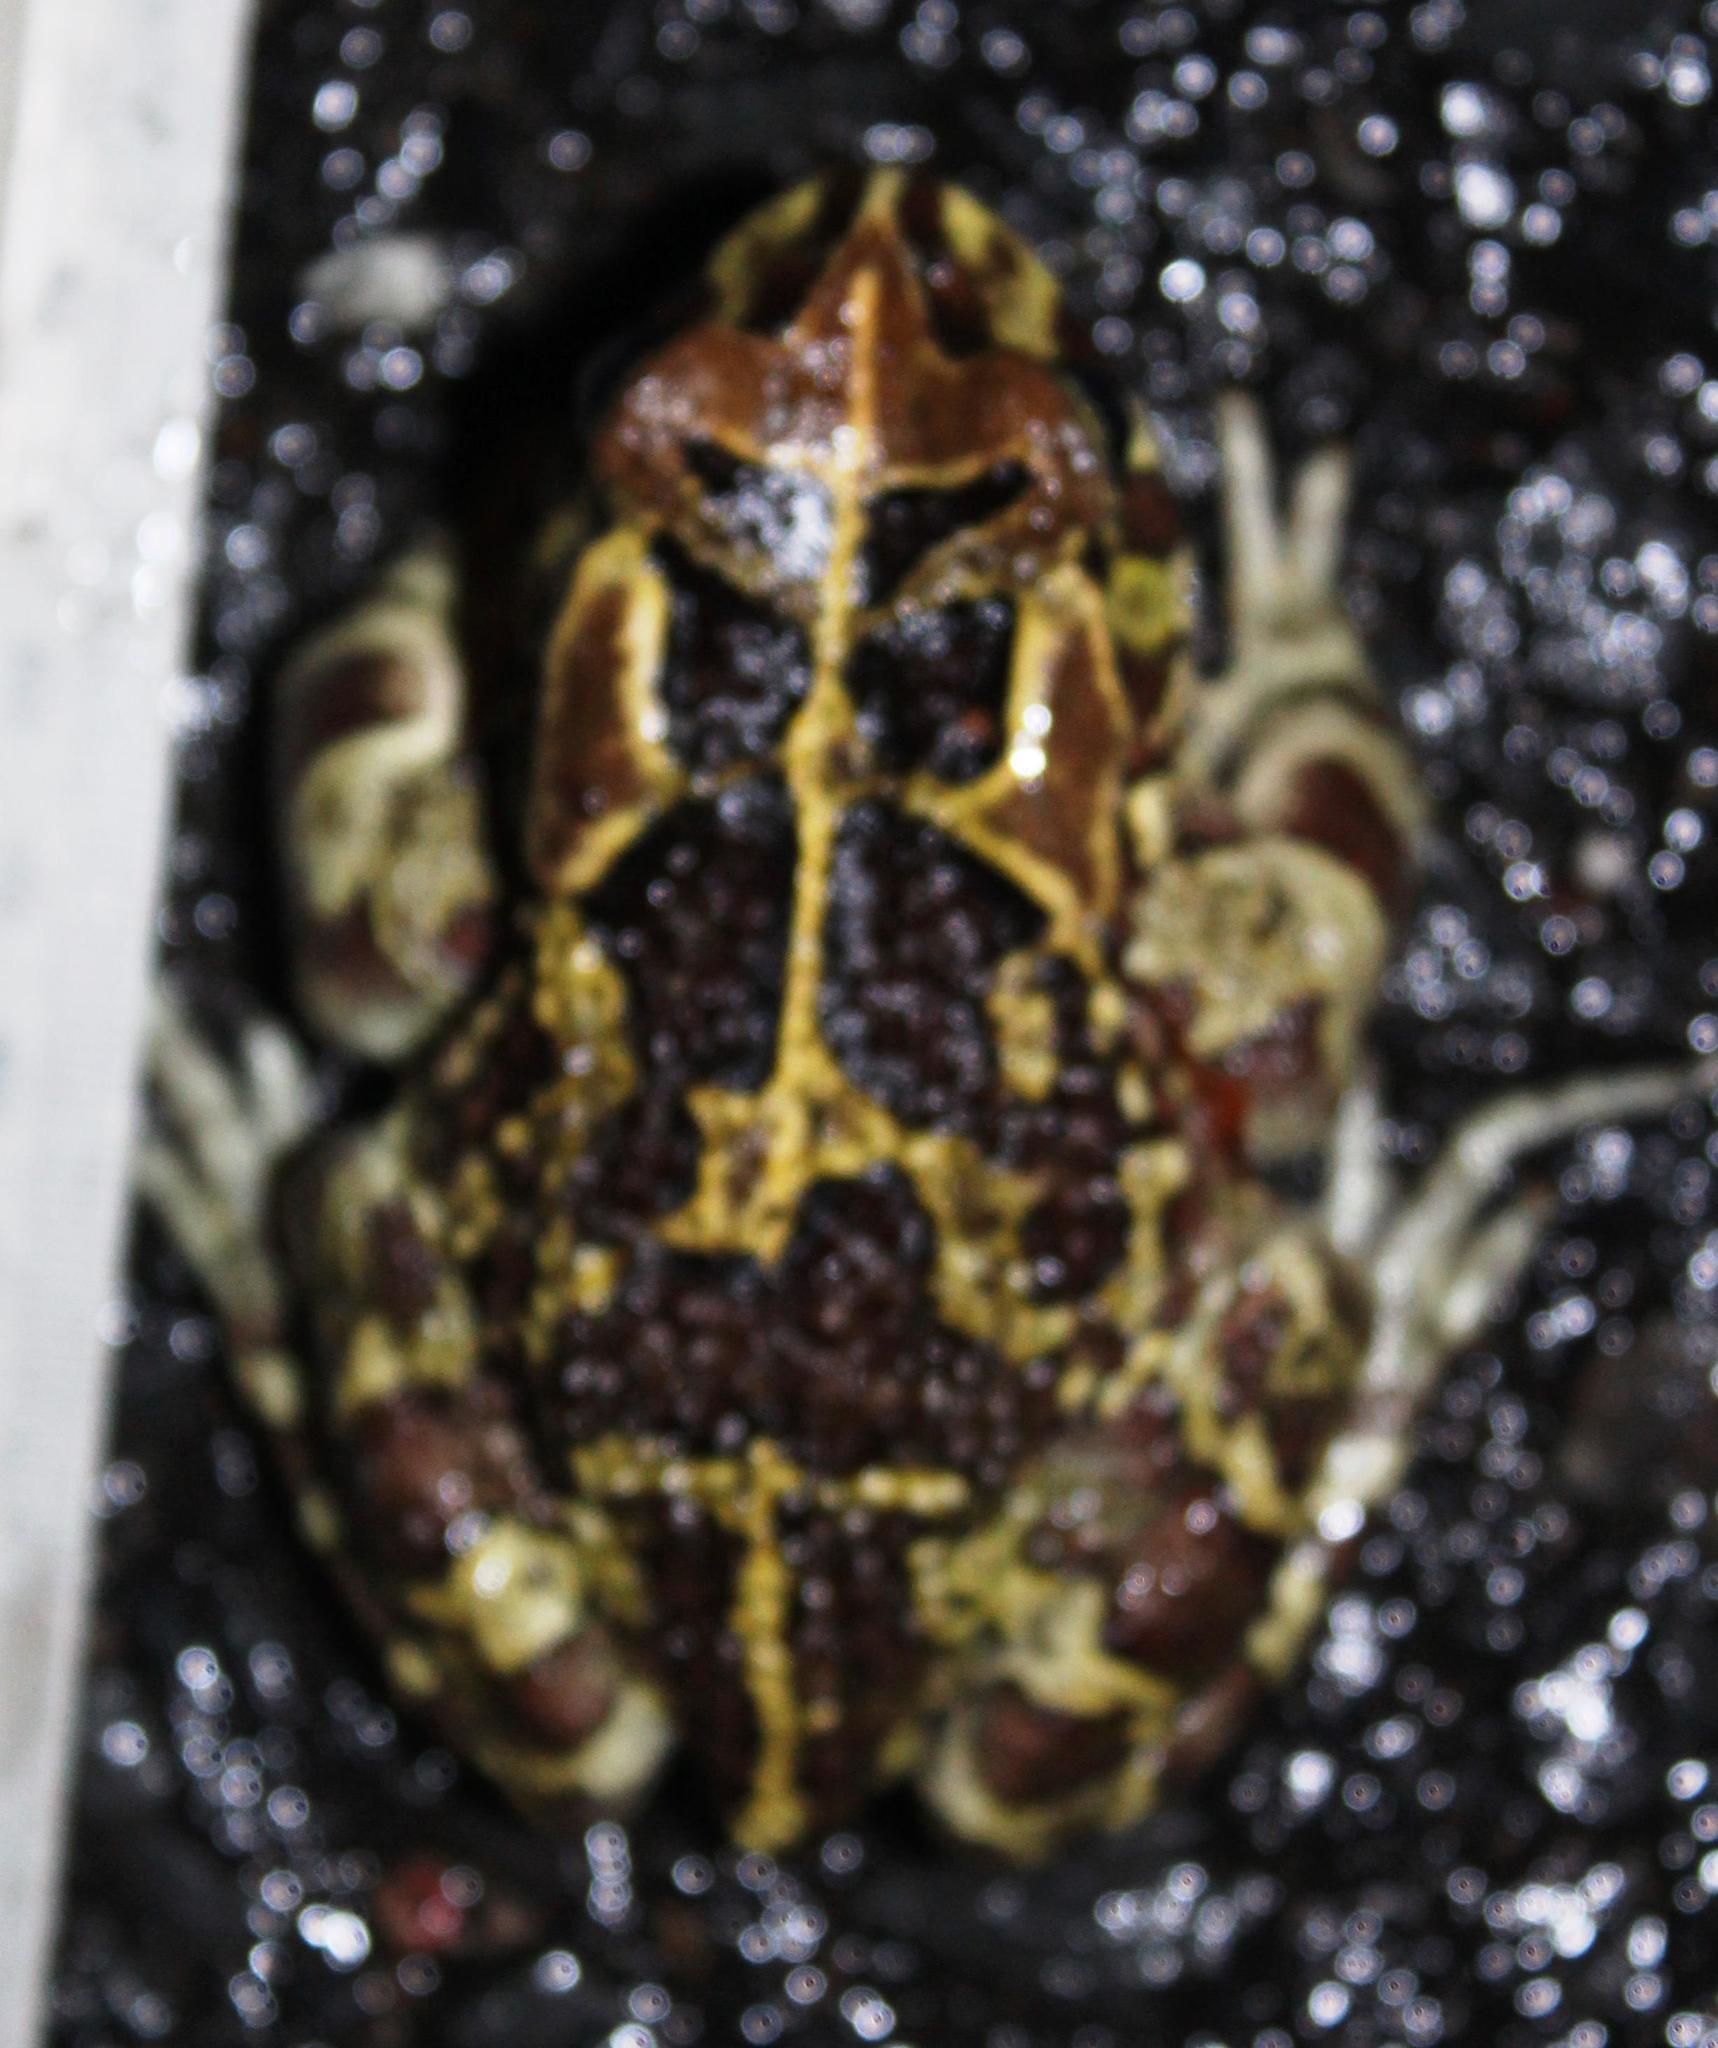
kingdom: Animalia
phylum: Chordata
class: Amphibia
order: Anura
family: Bufonidae
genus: Sclerophrys
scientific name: Sclerophrys pantherina
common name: Panther toad
